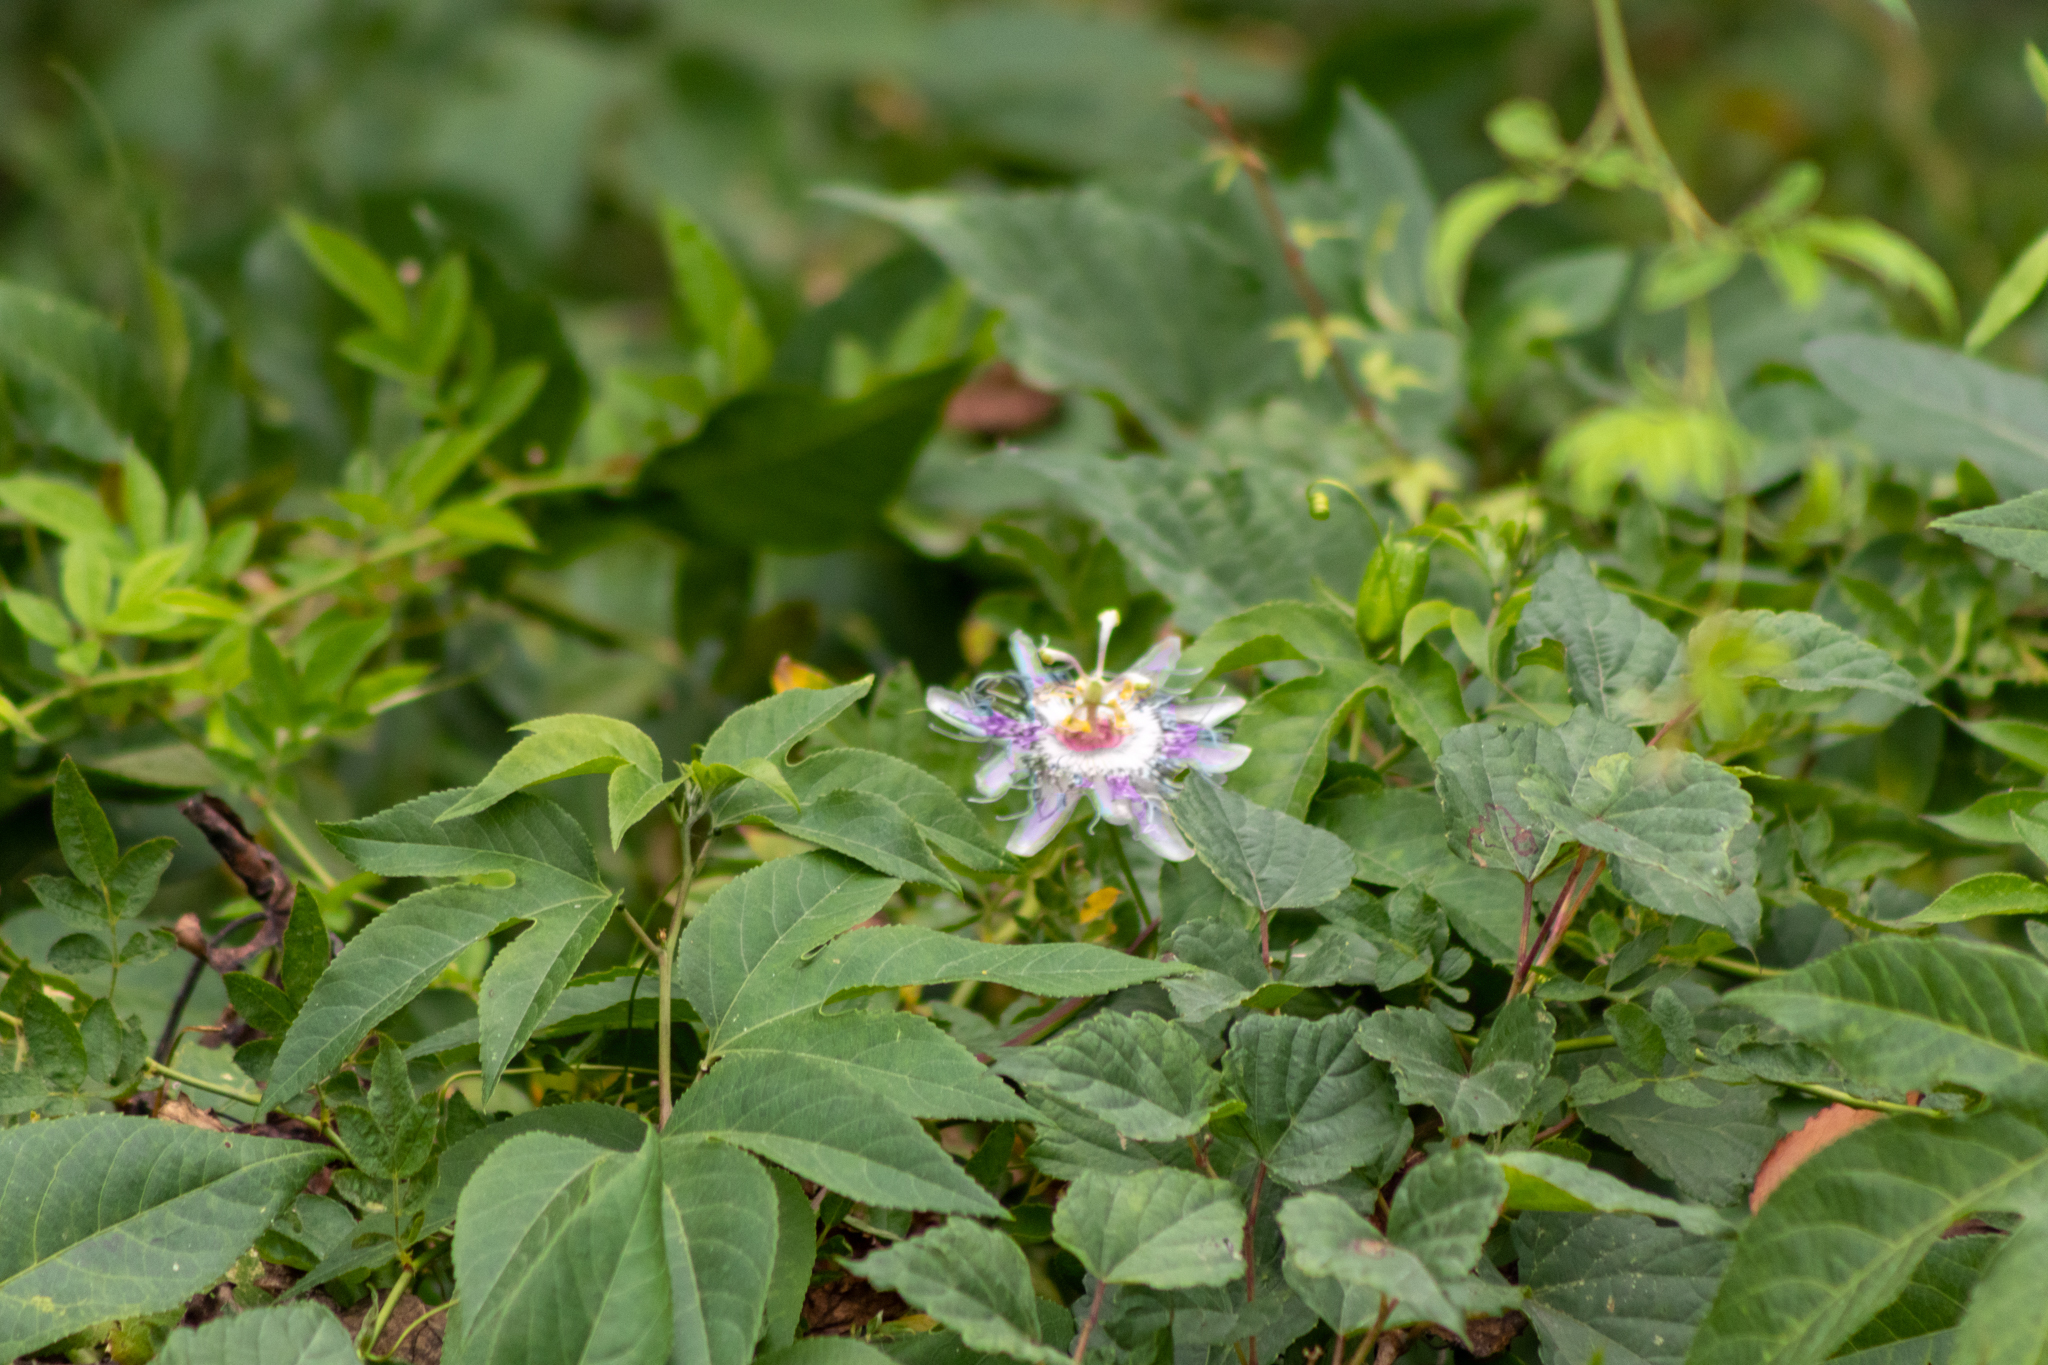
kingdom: Plantae
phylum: Tracheophyta
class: Magnoliopsida
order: Malpighiales
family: Passifloraceae
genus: Passiflora
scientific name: Passiflora incarnata
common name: Apricot-vine
